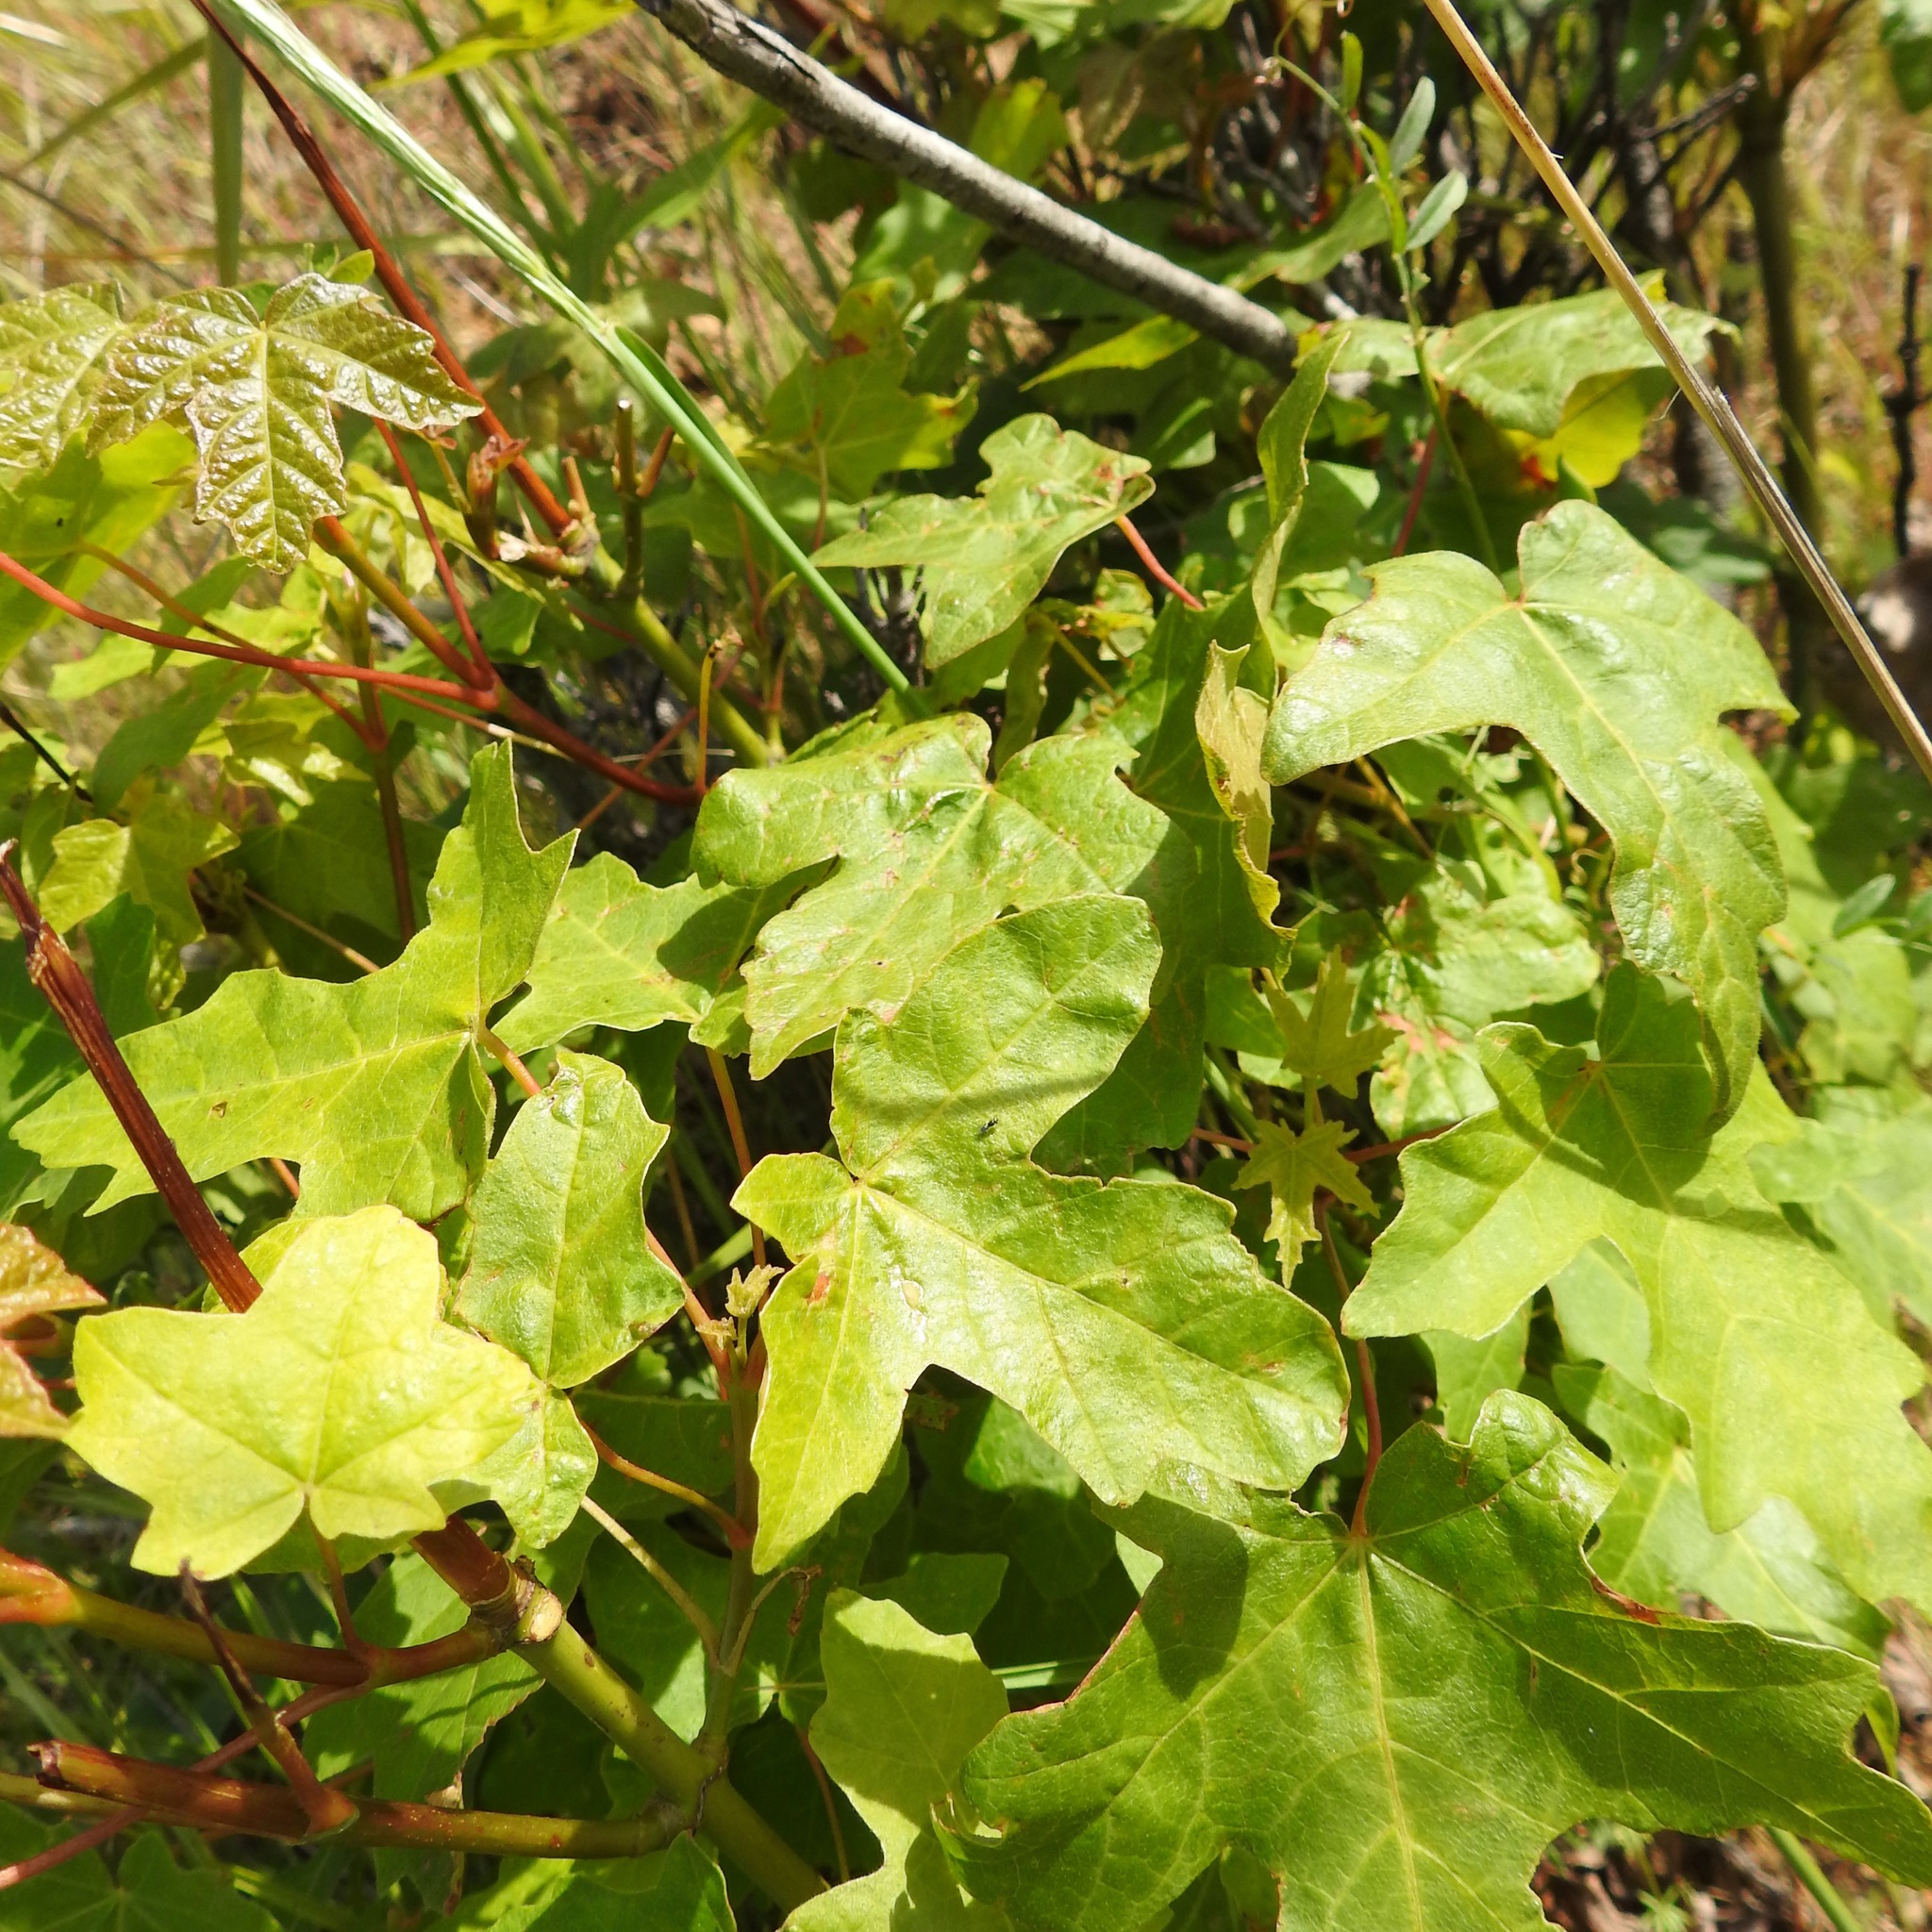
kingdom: Plantae
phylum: Tracheophyta
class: Magnoliopsida
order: Sapindales
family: Sapindaceae
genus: Acer
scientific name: Acer macrophyllum
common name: Oregon maple
